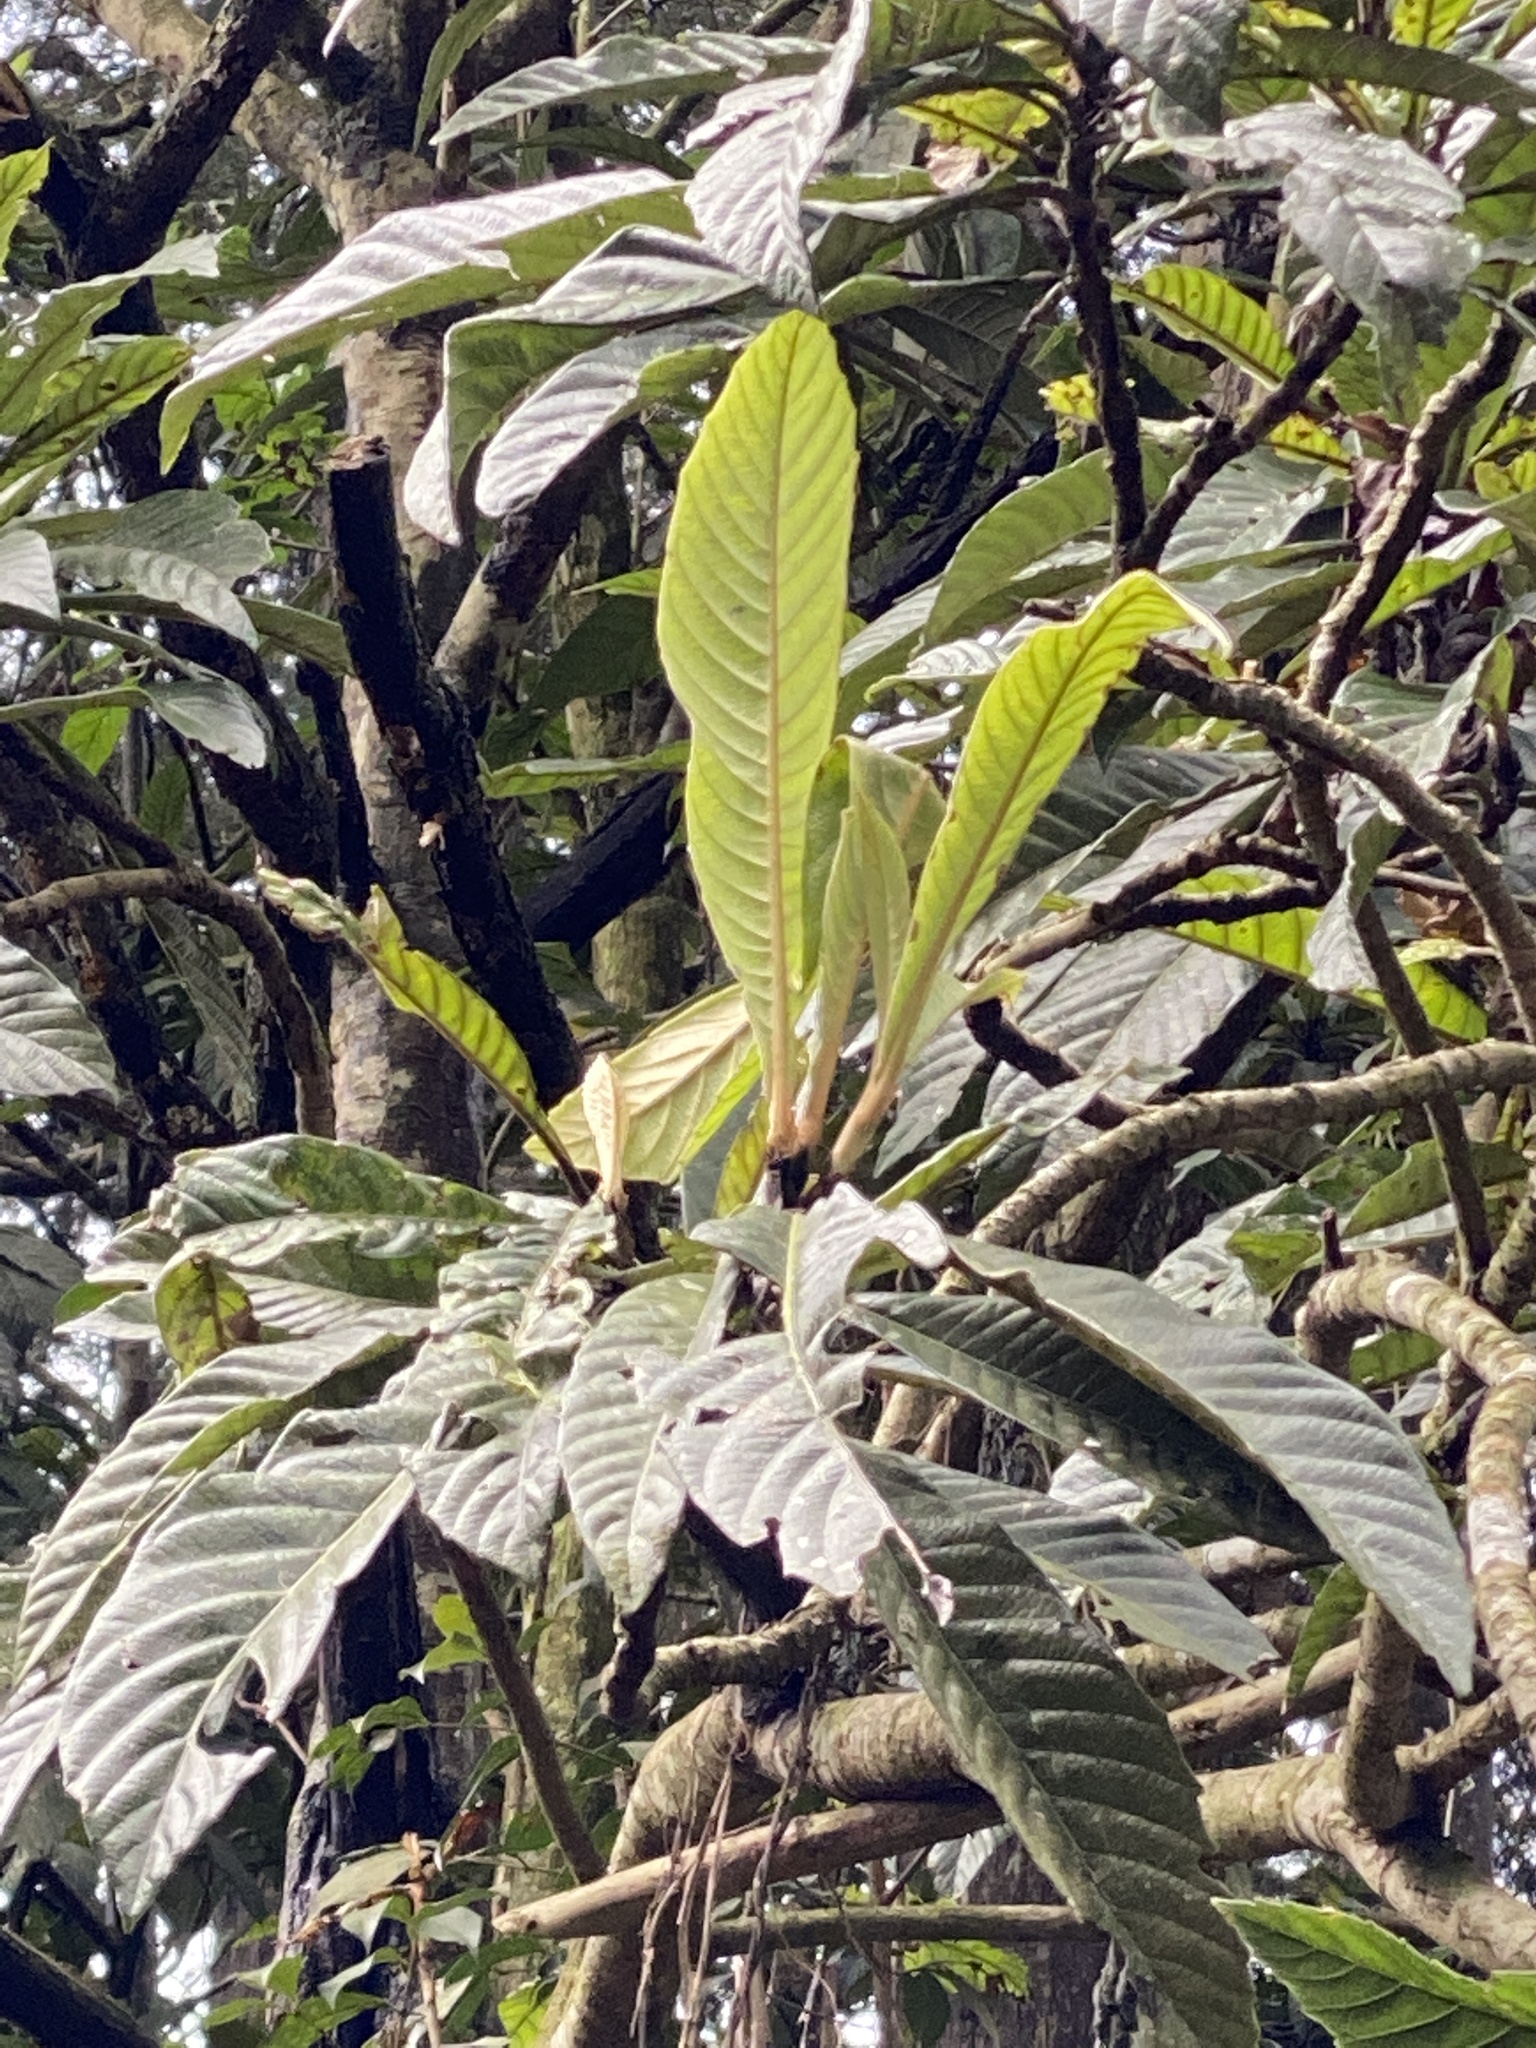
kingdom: Plantae
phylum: Tracheophyta
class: Magnoliopsida
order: Rosales
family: Rosaceae
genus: Rhaphiolepis
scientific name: Rhaphiolepis bibas
